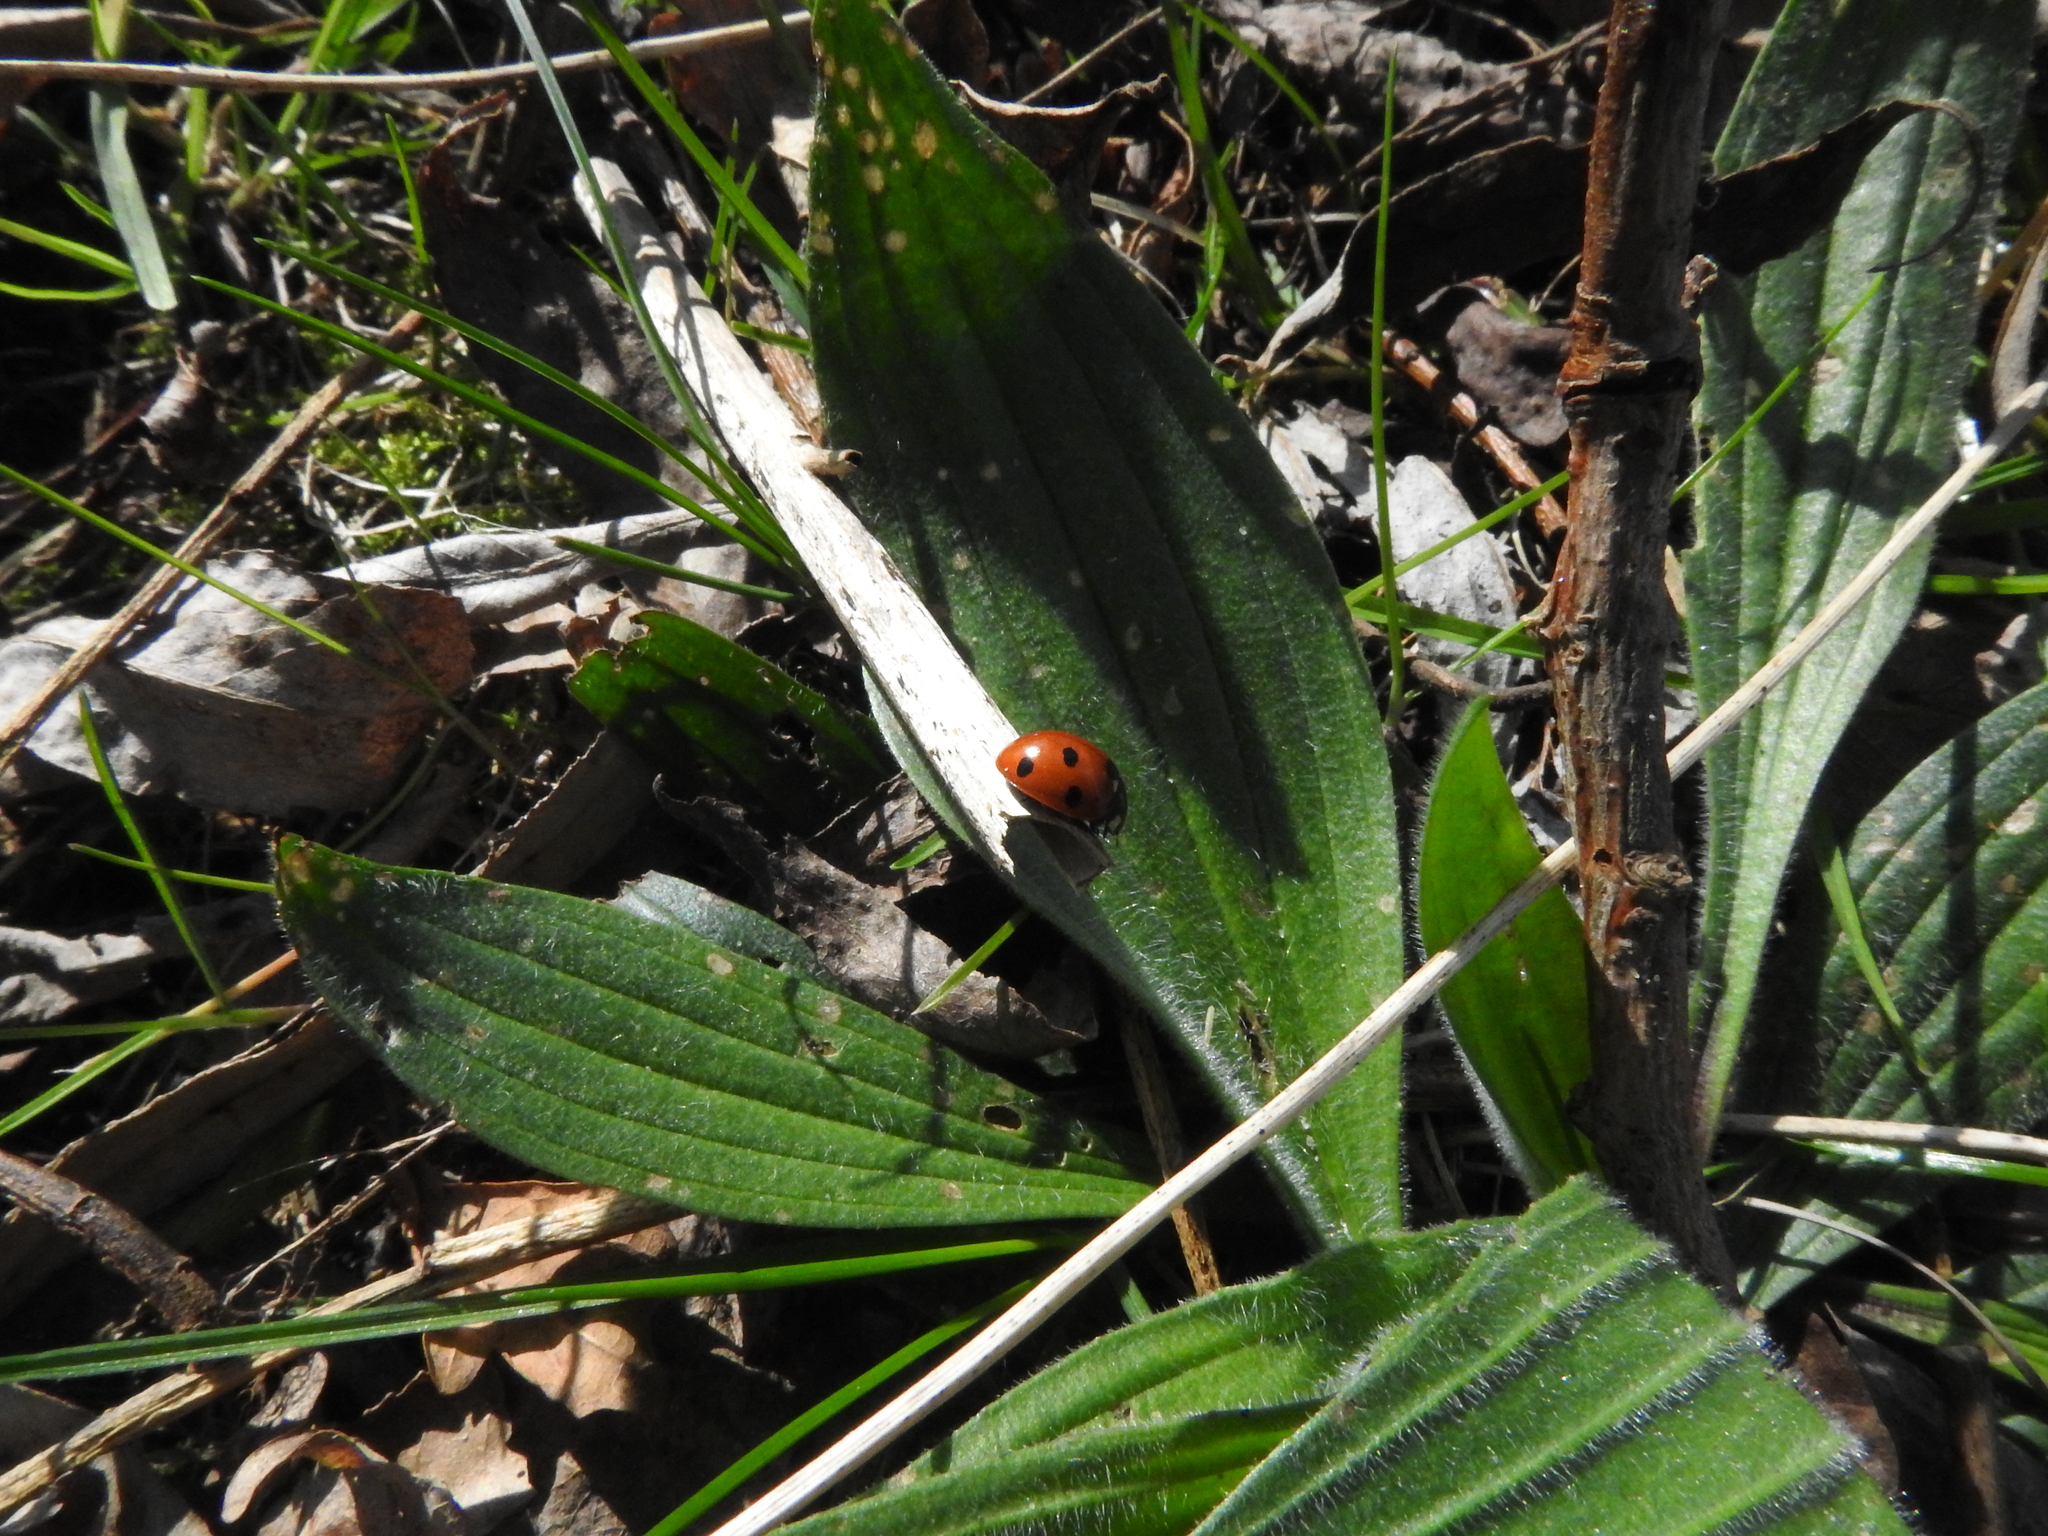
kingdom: Animalia
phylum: Arthropoda
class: Insecta
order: Coleoptera
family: Coccinellidae
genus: Coccinella
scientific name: Coccinella septempunctata
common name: Sevenspotted lady beetle
